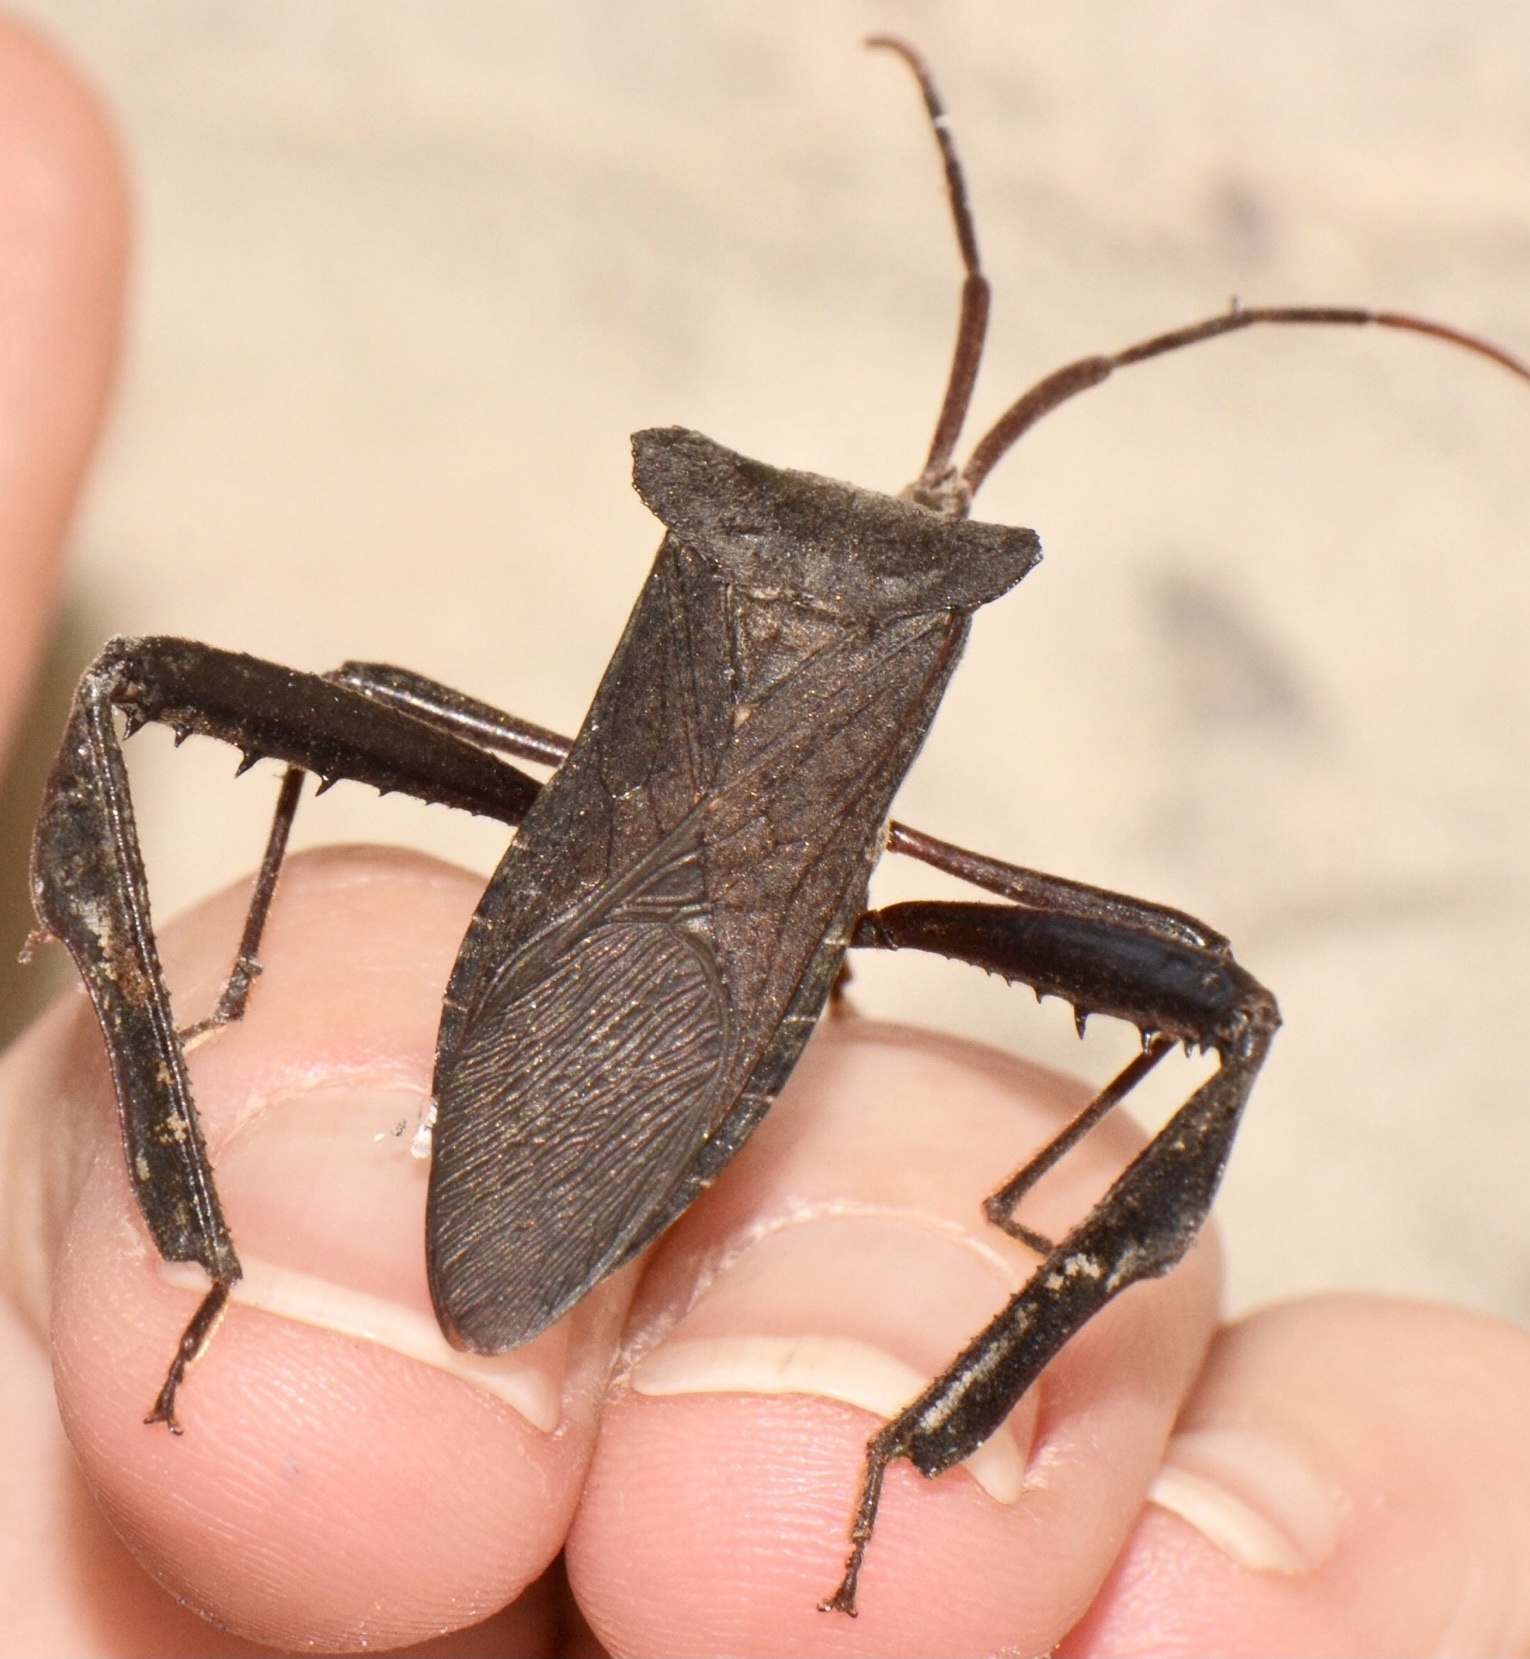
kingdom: Animalia
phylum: Arthropoda
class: Insecta
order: Hemiptera
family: Coreidae
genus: Acanthocephala
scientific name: Acanthocephala declivis
